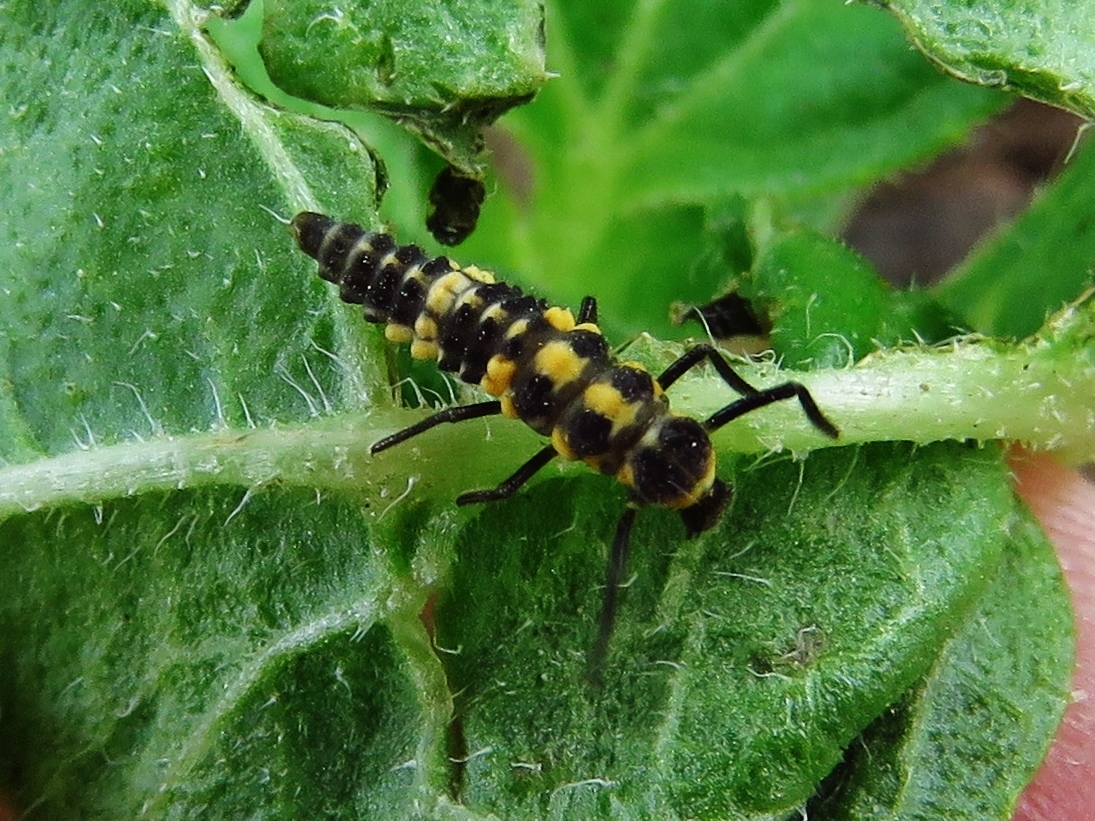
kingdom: Animalia
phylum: Arthropoda
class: Insecta
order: Coleoptera
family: Coccinellidae
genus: Cycloneda
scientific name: Cycloneda munda
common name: Polished lady beetle
